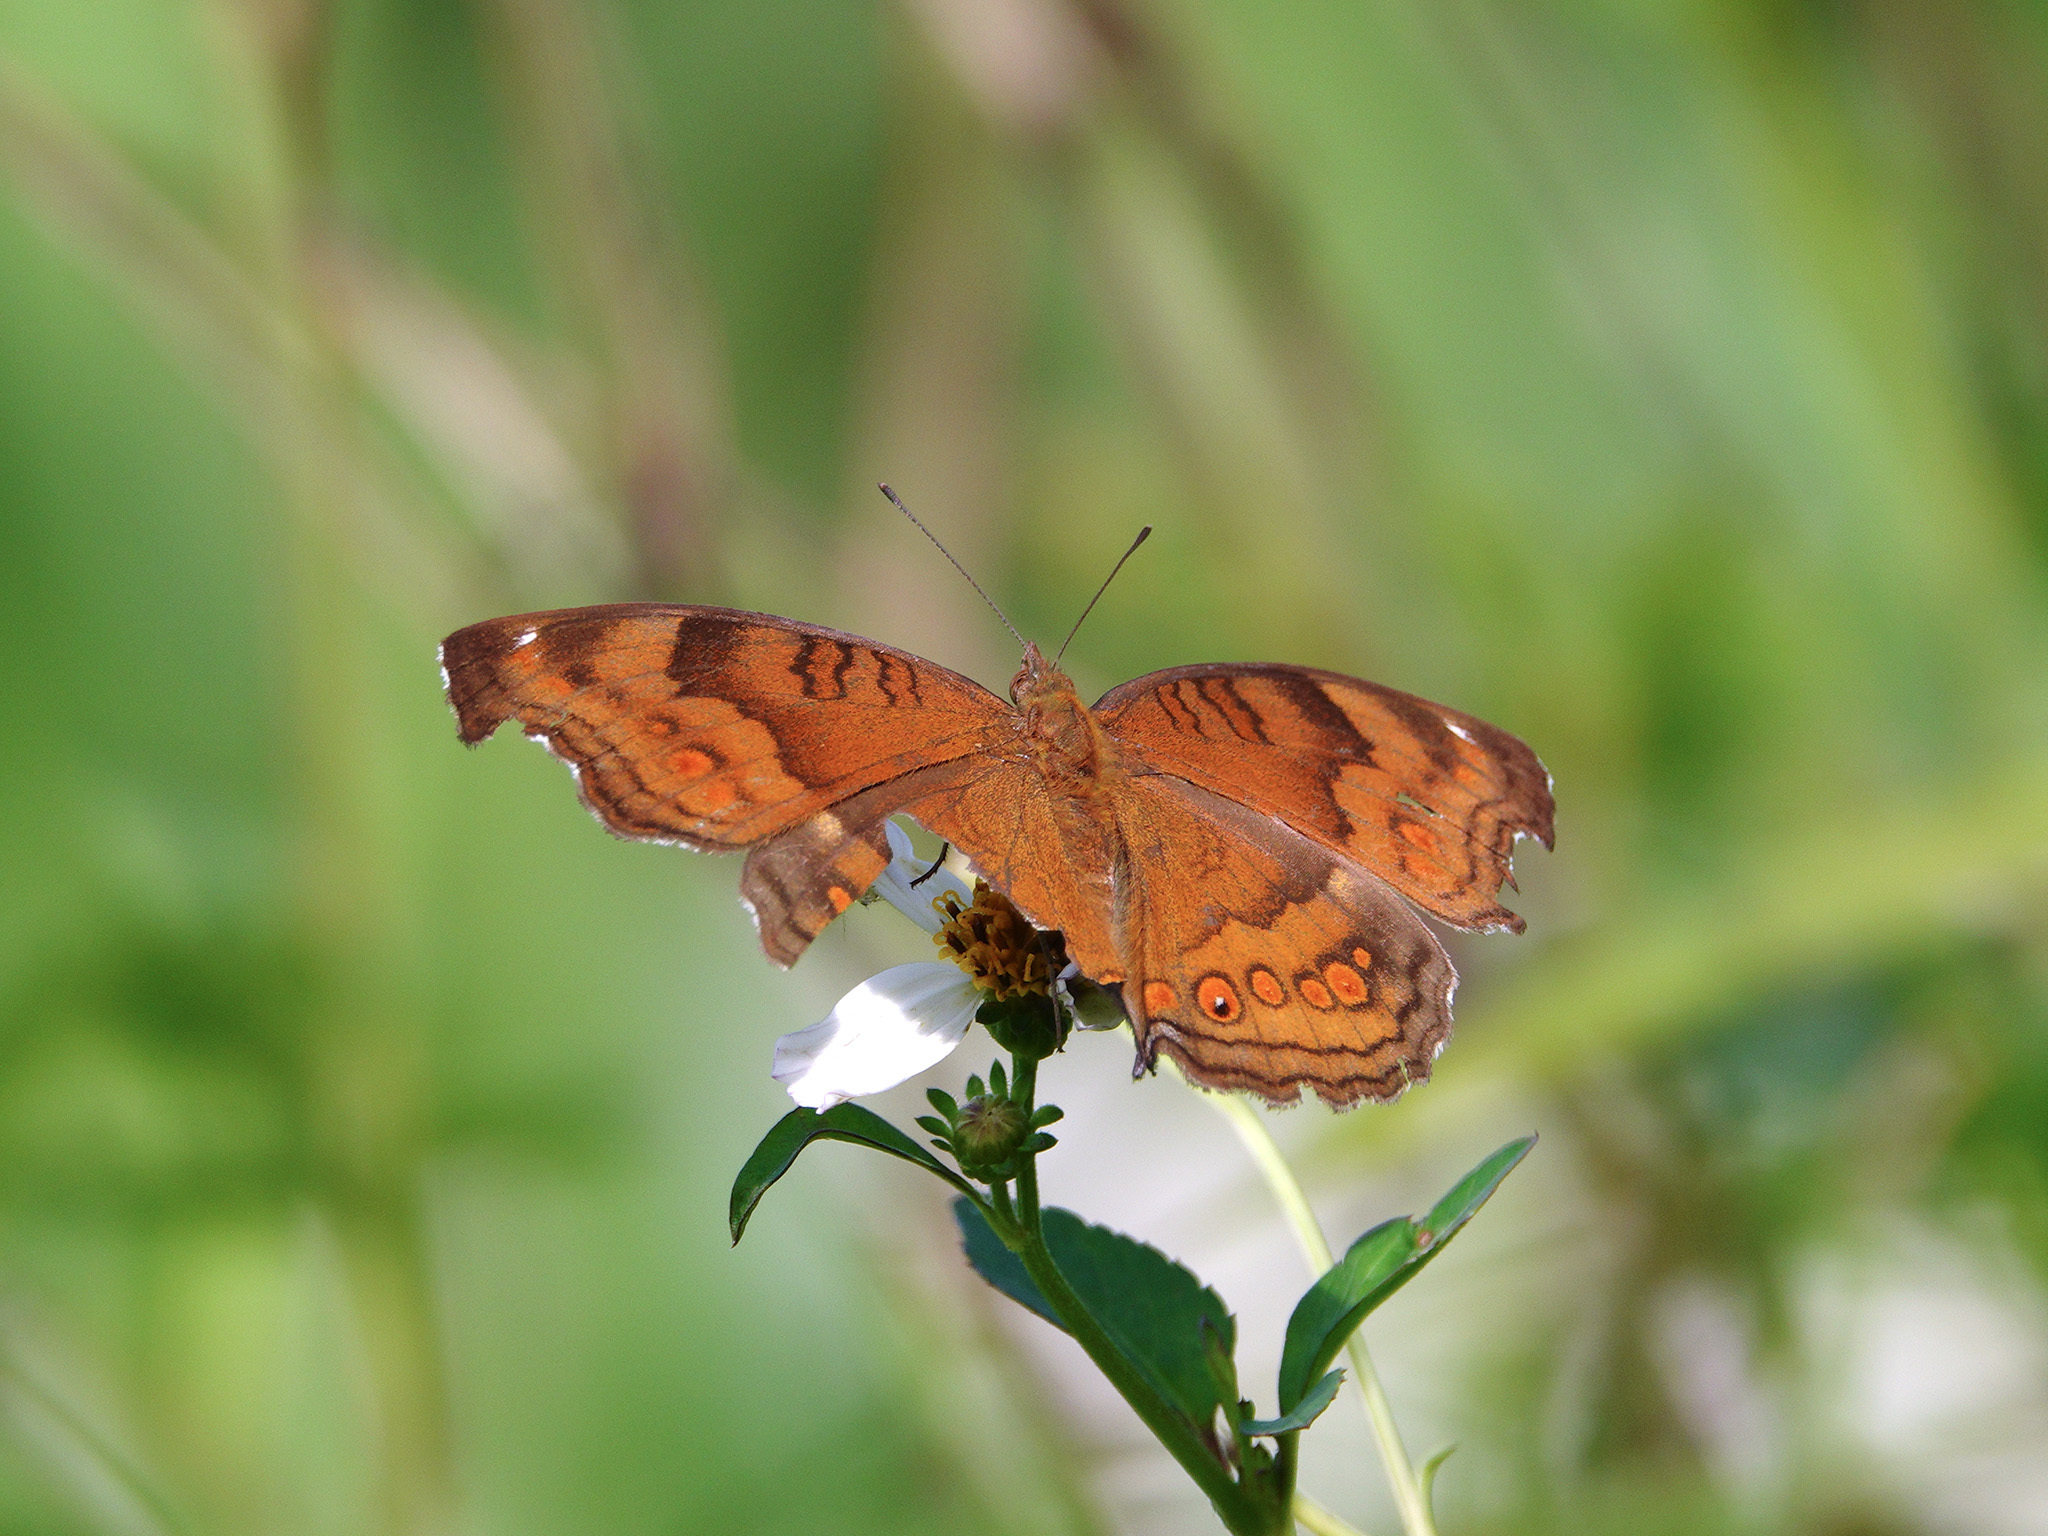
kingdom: Animalia
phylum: Arthropoda
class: Insecta
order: Lepidoptera
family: Nymphalidae
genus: Junonia
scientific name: Junonia hedonia
